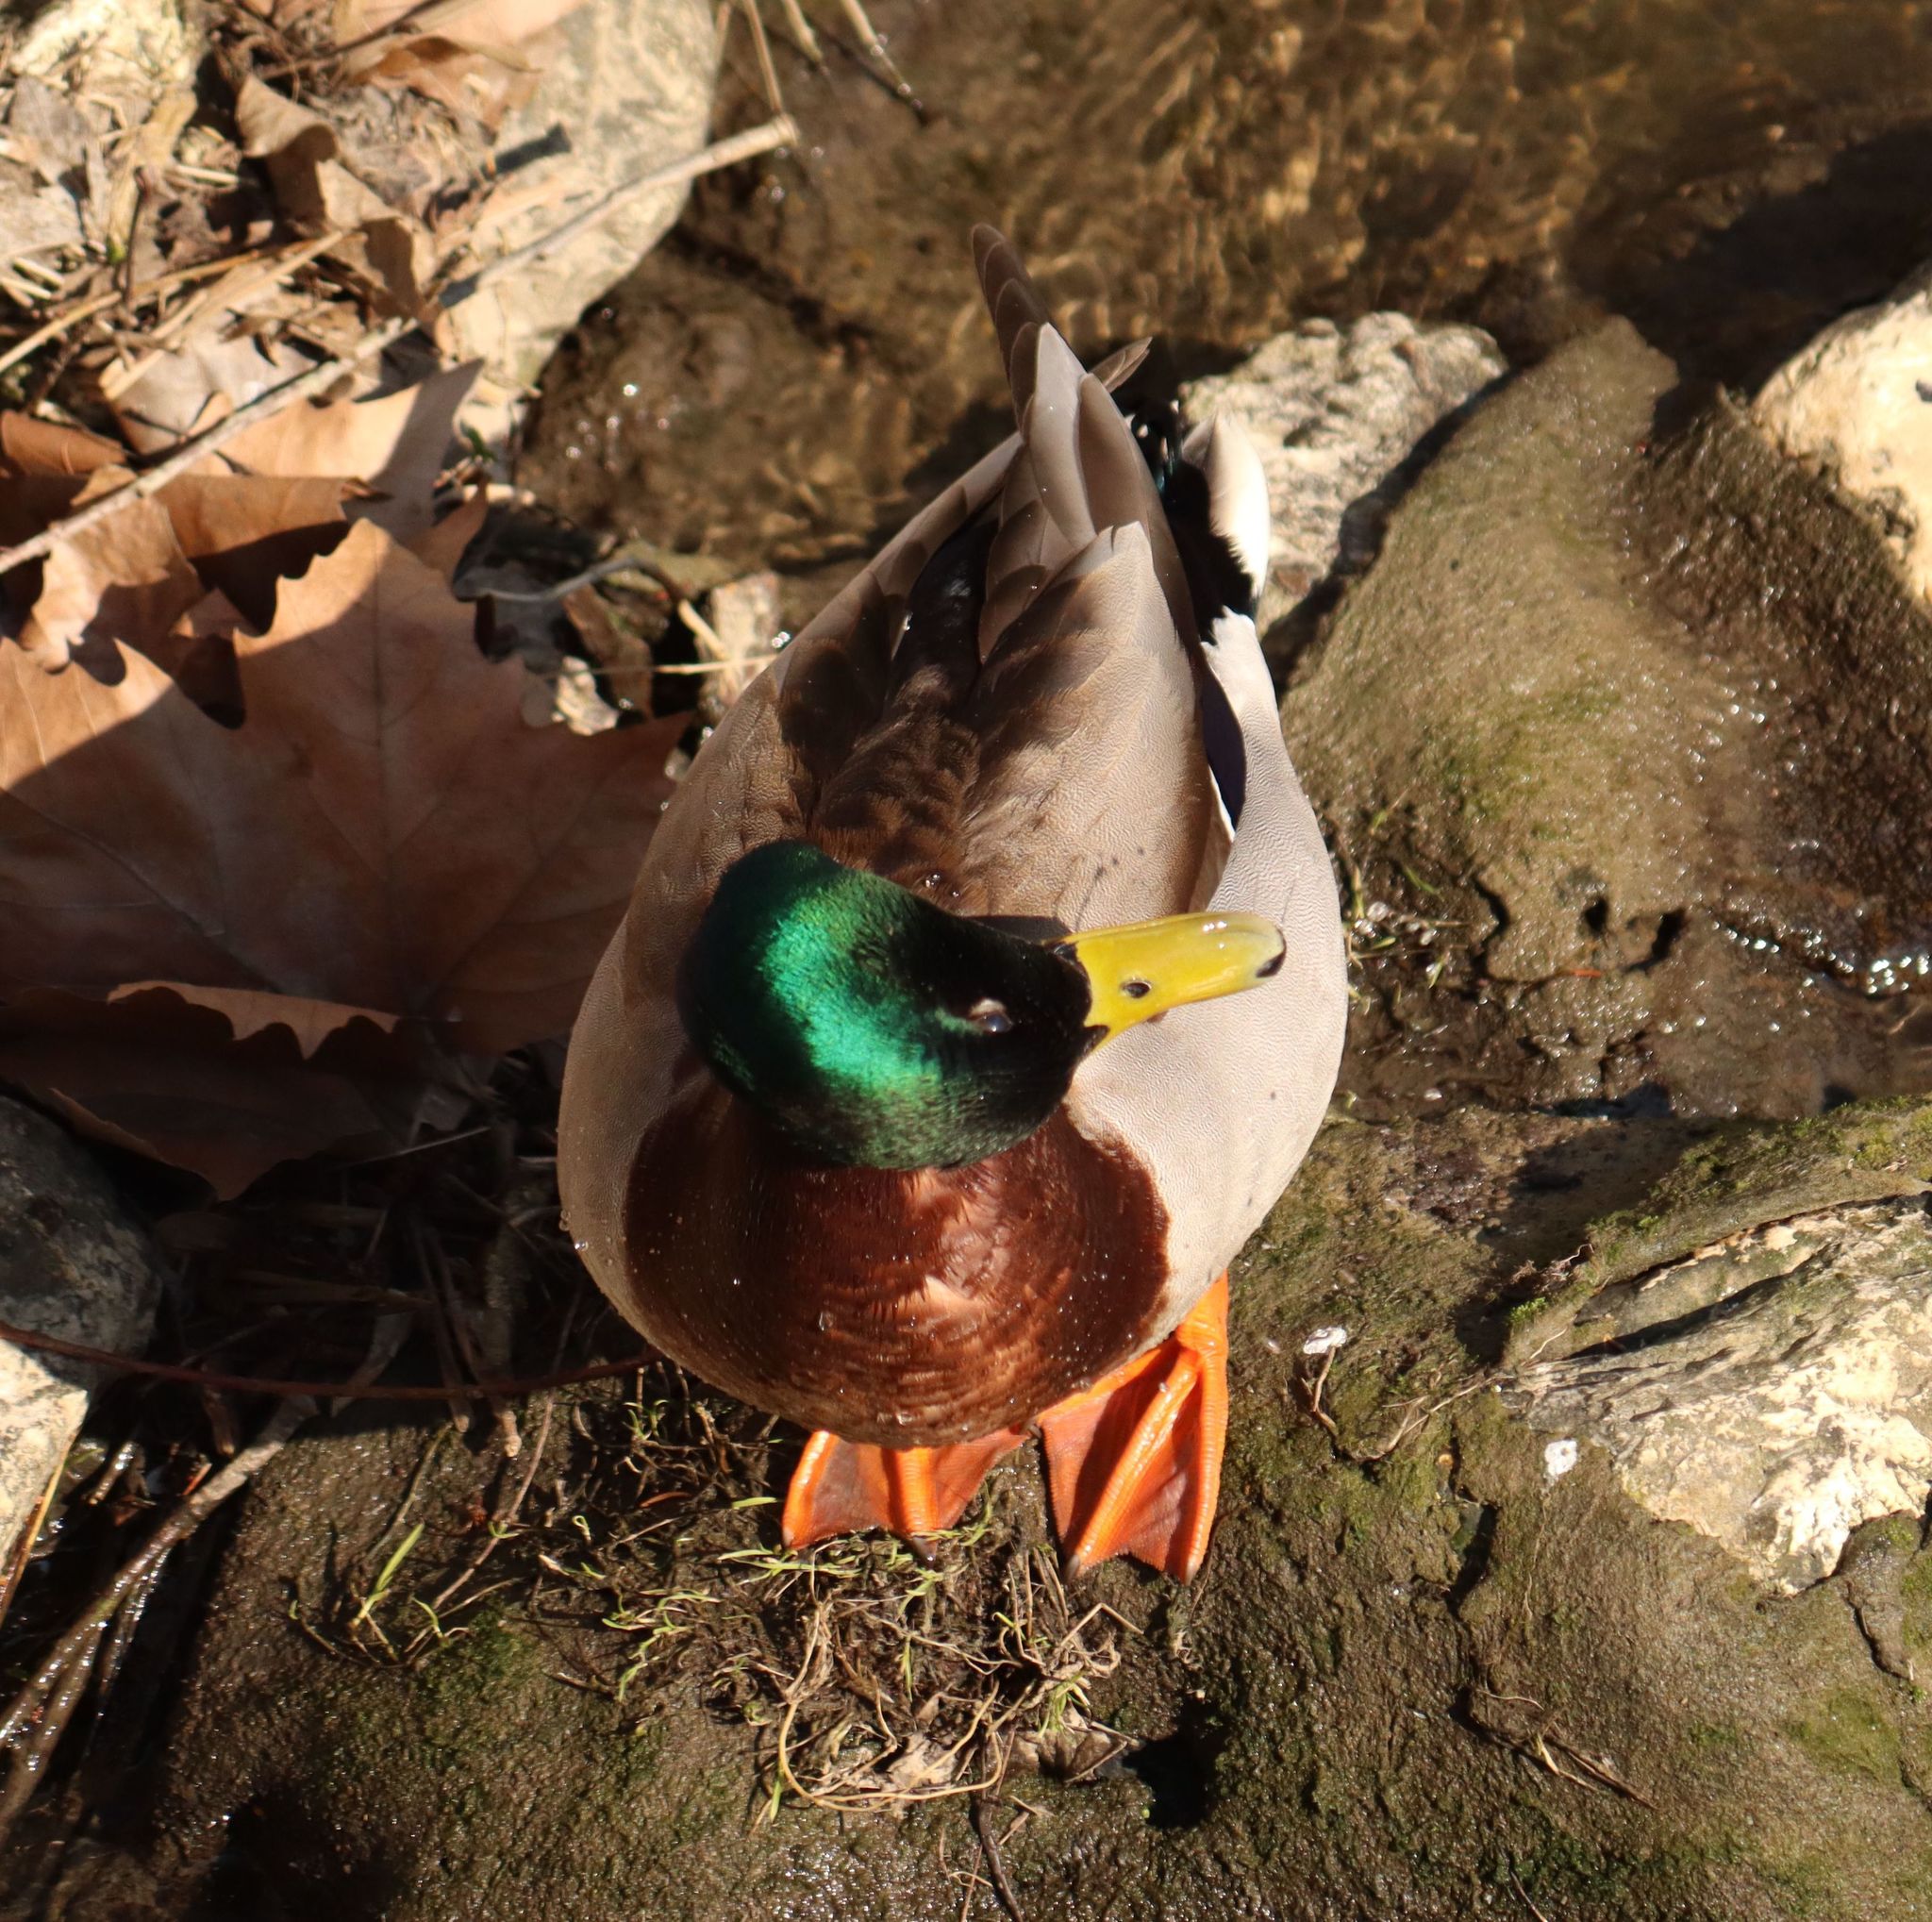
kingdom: Animalia
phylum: Chordata
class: Aves
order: Anseriformes
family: Anatidae
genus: Anas
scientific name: Anas platyrhynchos
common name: Mallard
